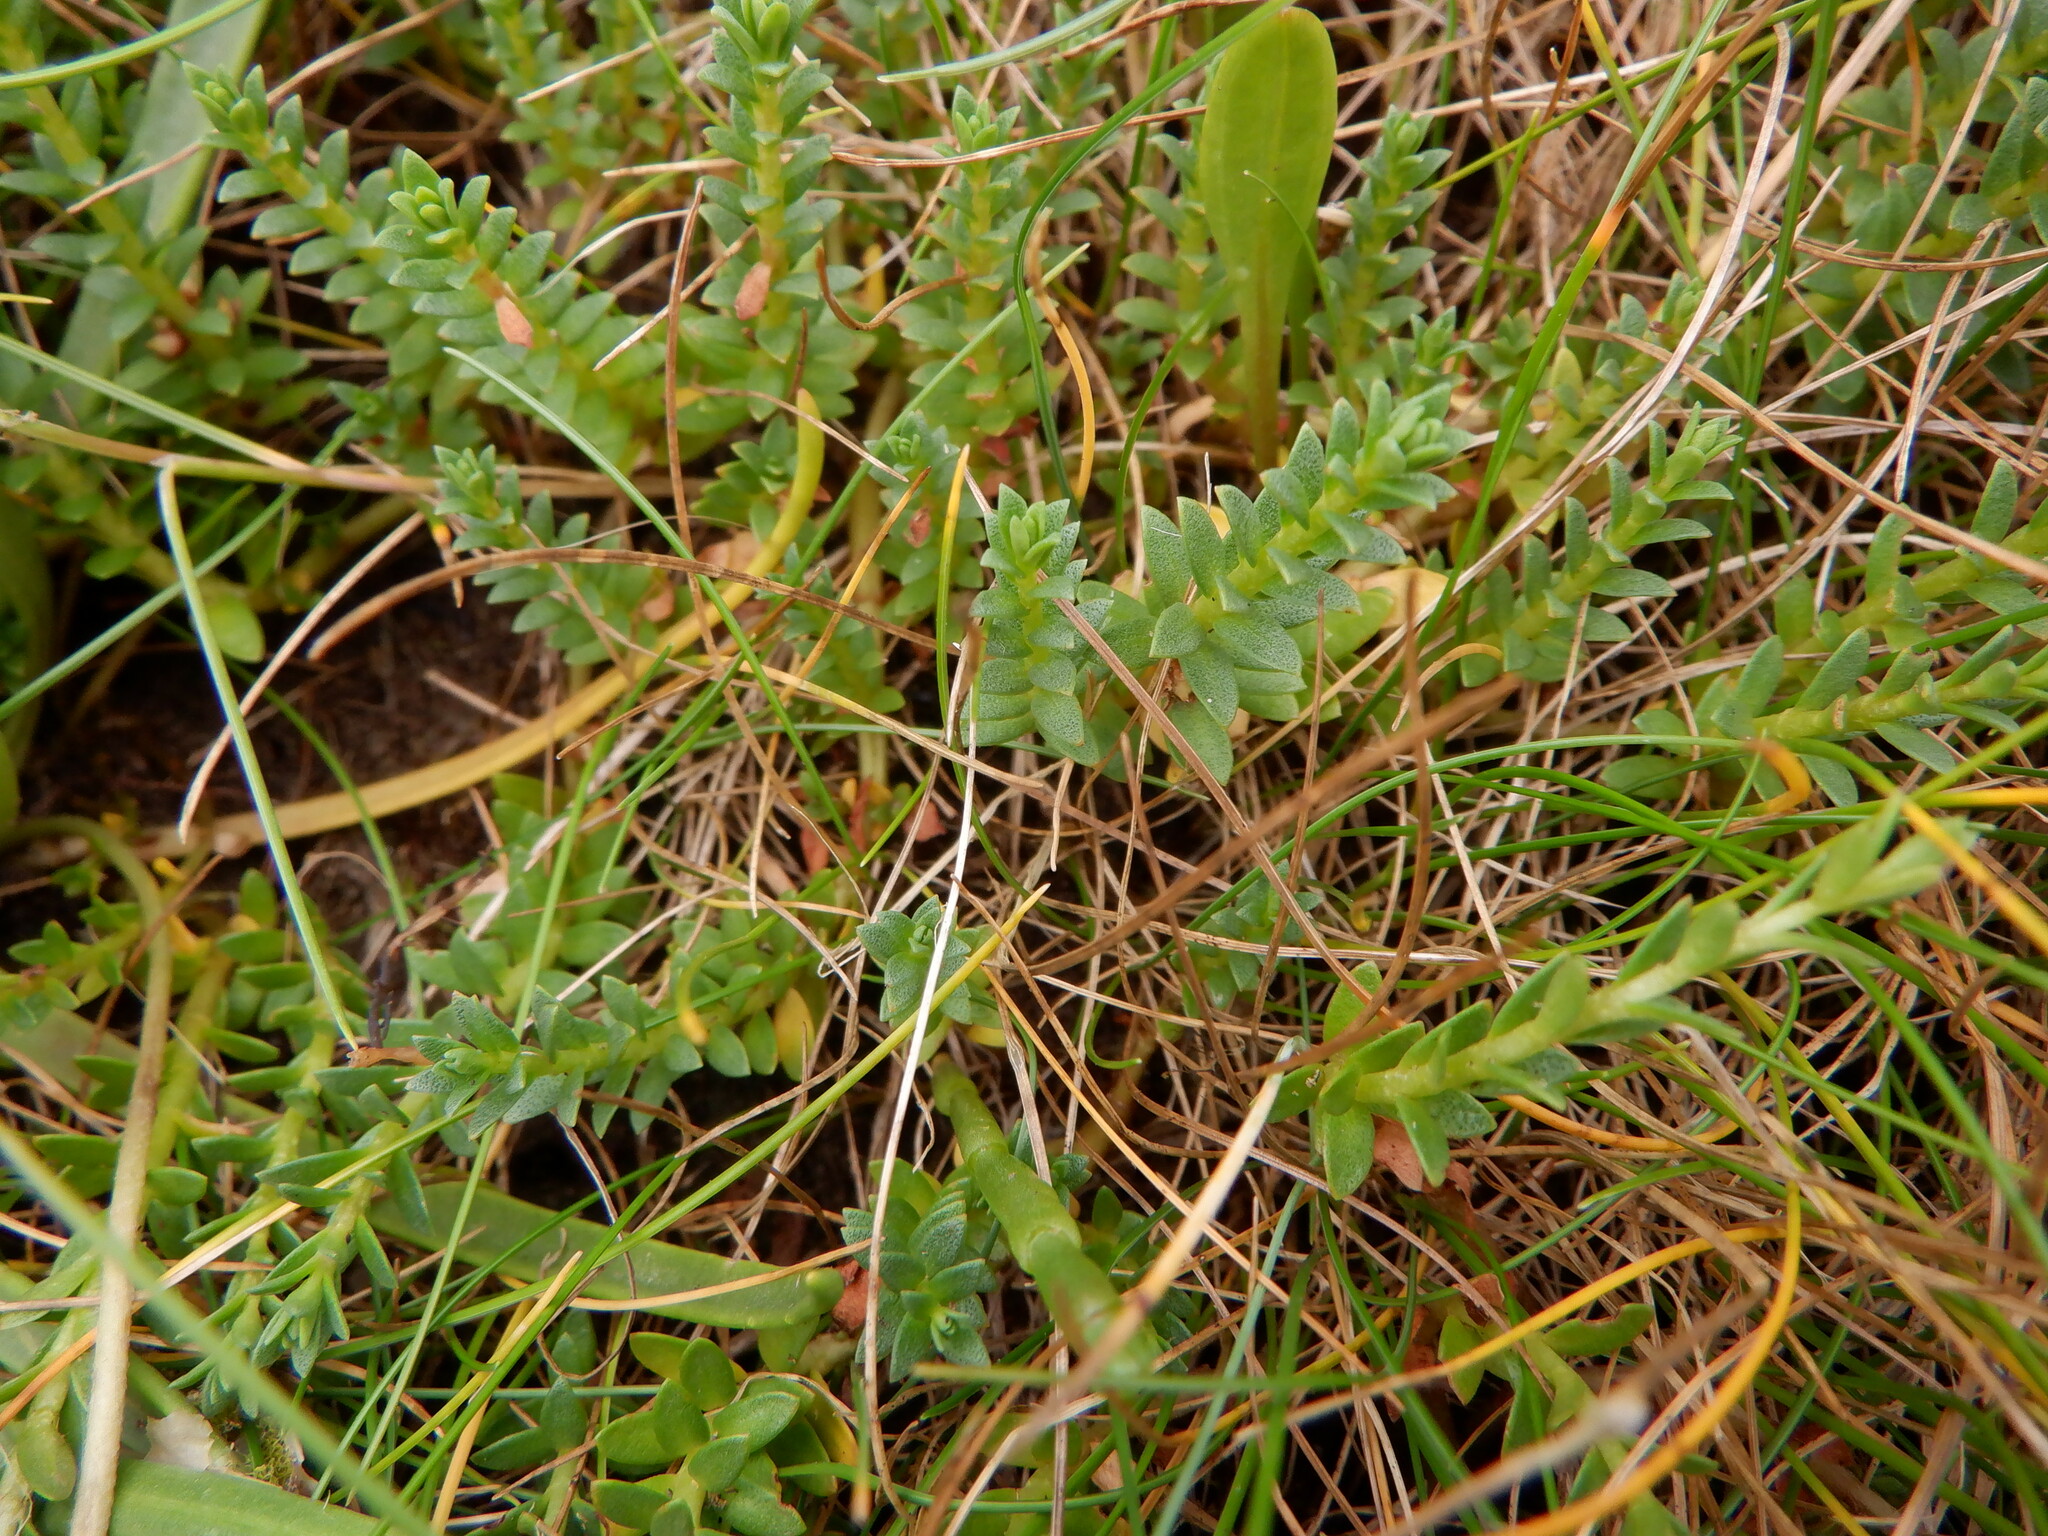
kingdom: Plantae
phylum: Tracheophyta
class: Magnoliopsida
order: Ericales
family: Primulaceae
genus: Lysimachia
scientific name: Lysimachia maritima
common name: Sea milkwort
